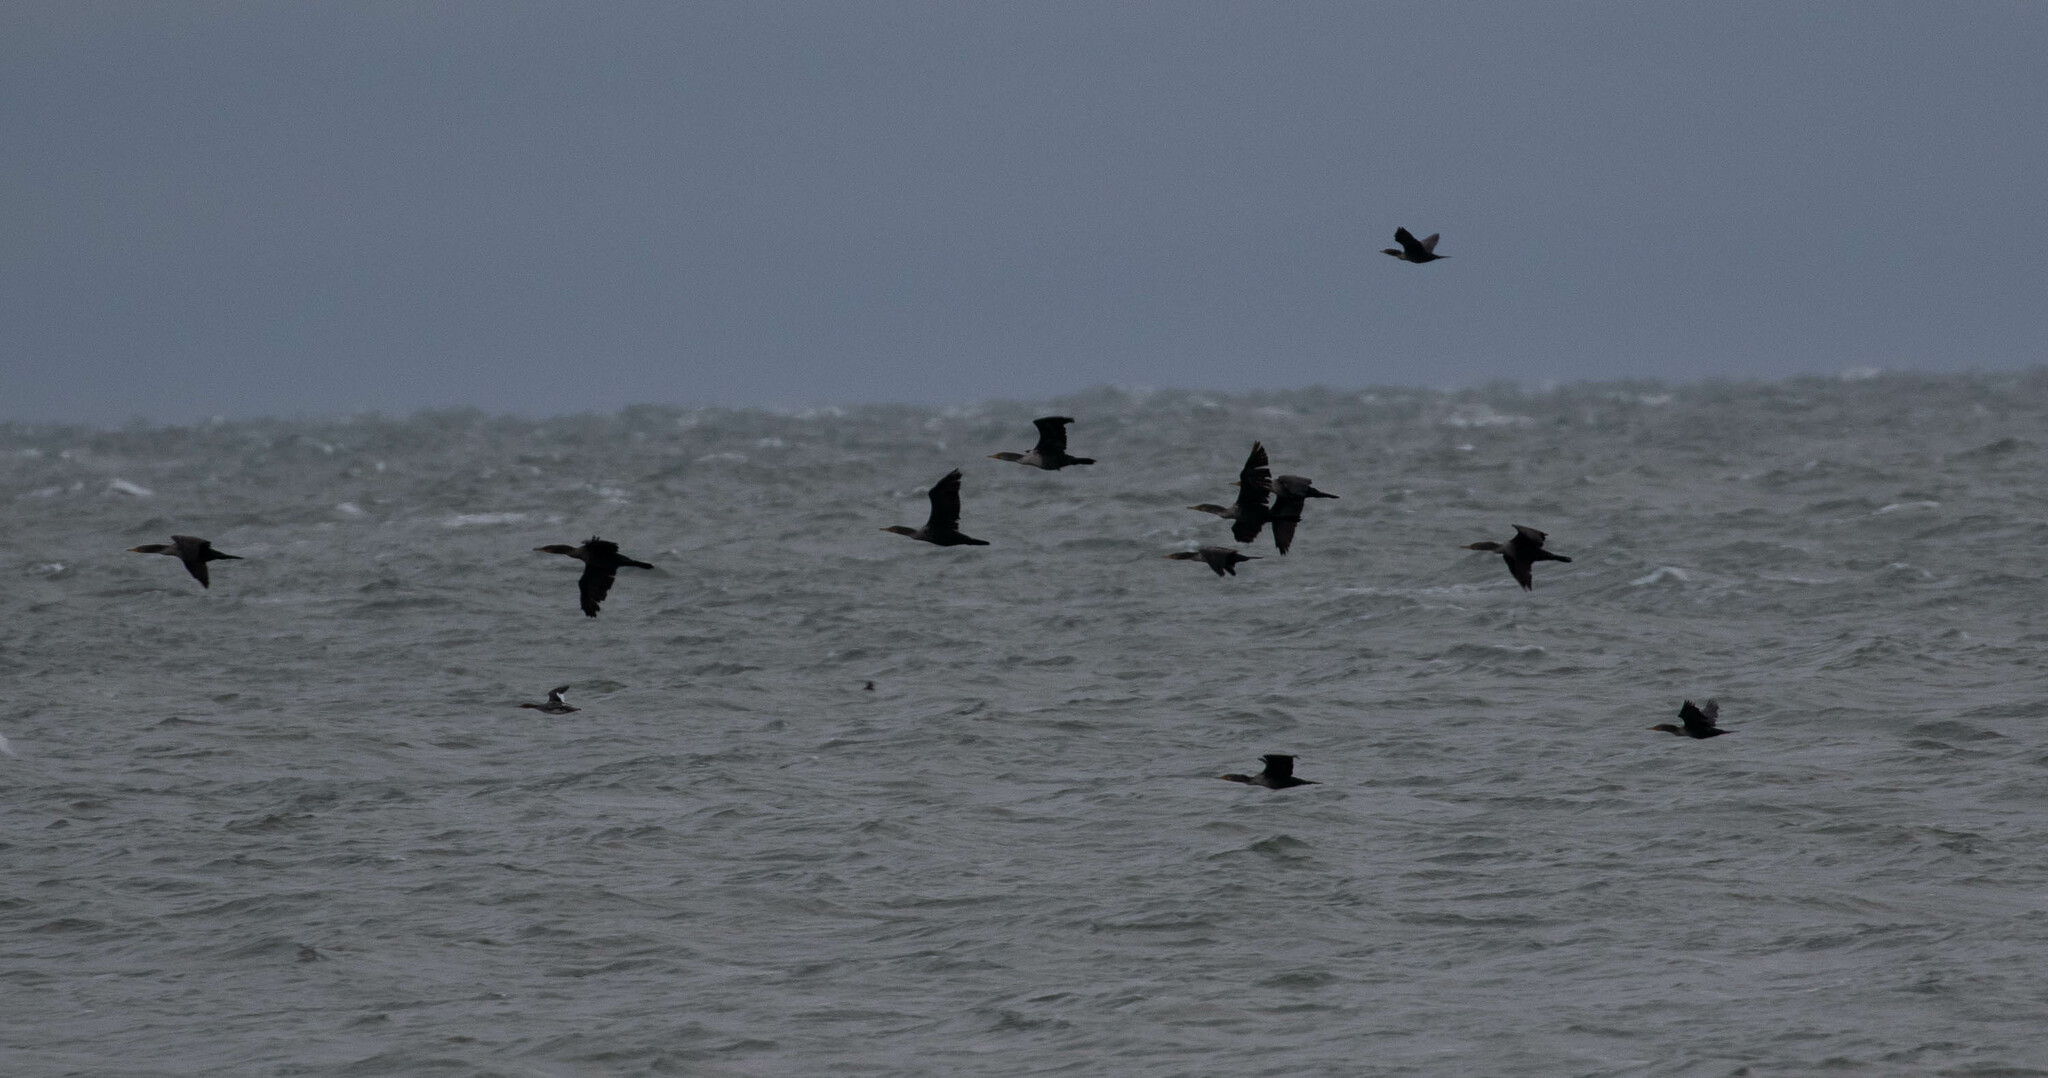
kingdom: Animalia
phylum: Chordata
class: Aves
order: Suliformes
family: Phalacrocoracidae
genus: Phalacrocorax
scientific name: Phalacrocorax auritus
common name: Double-crested cormorant
